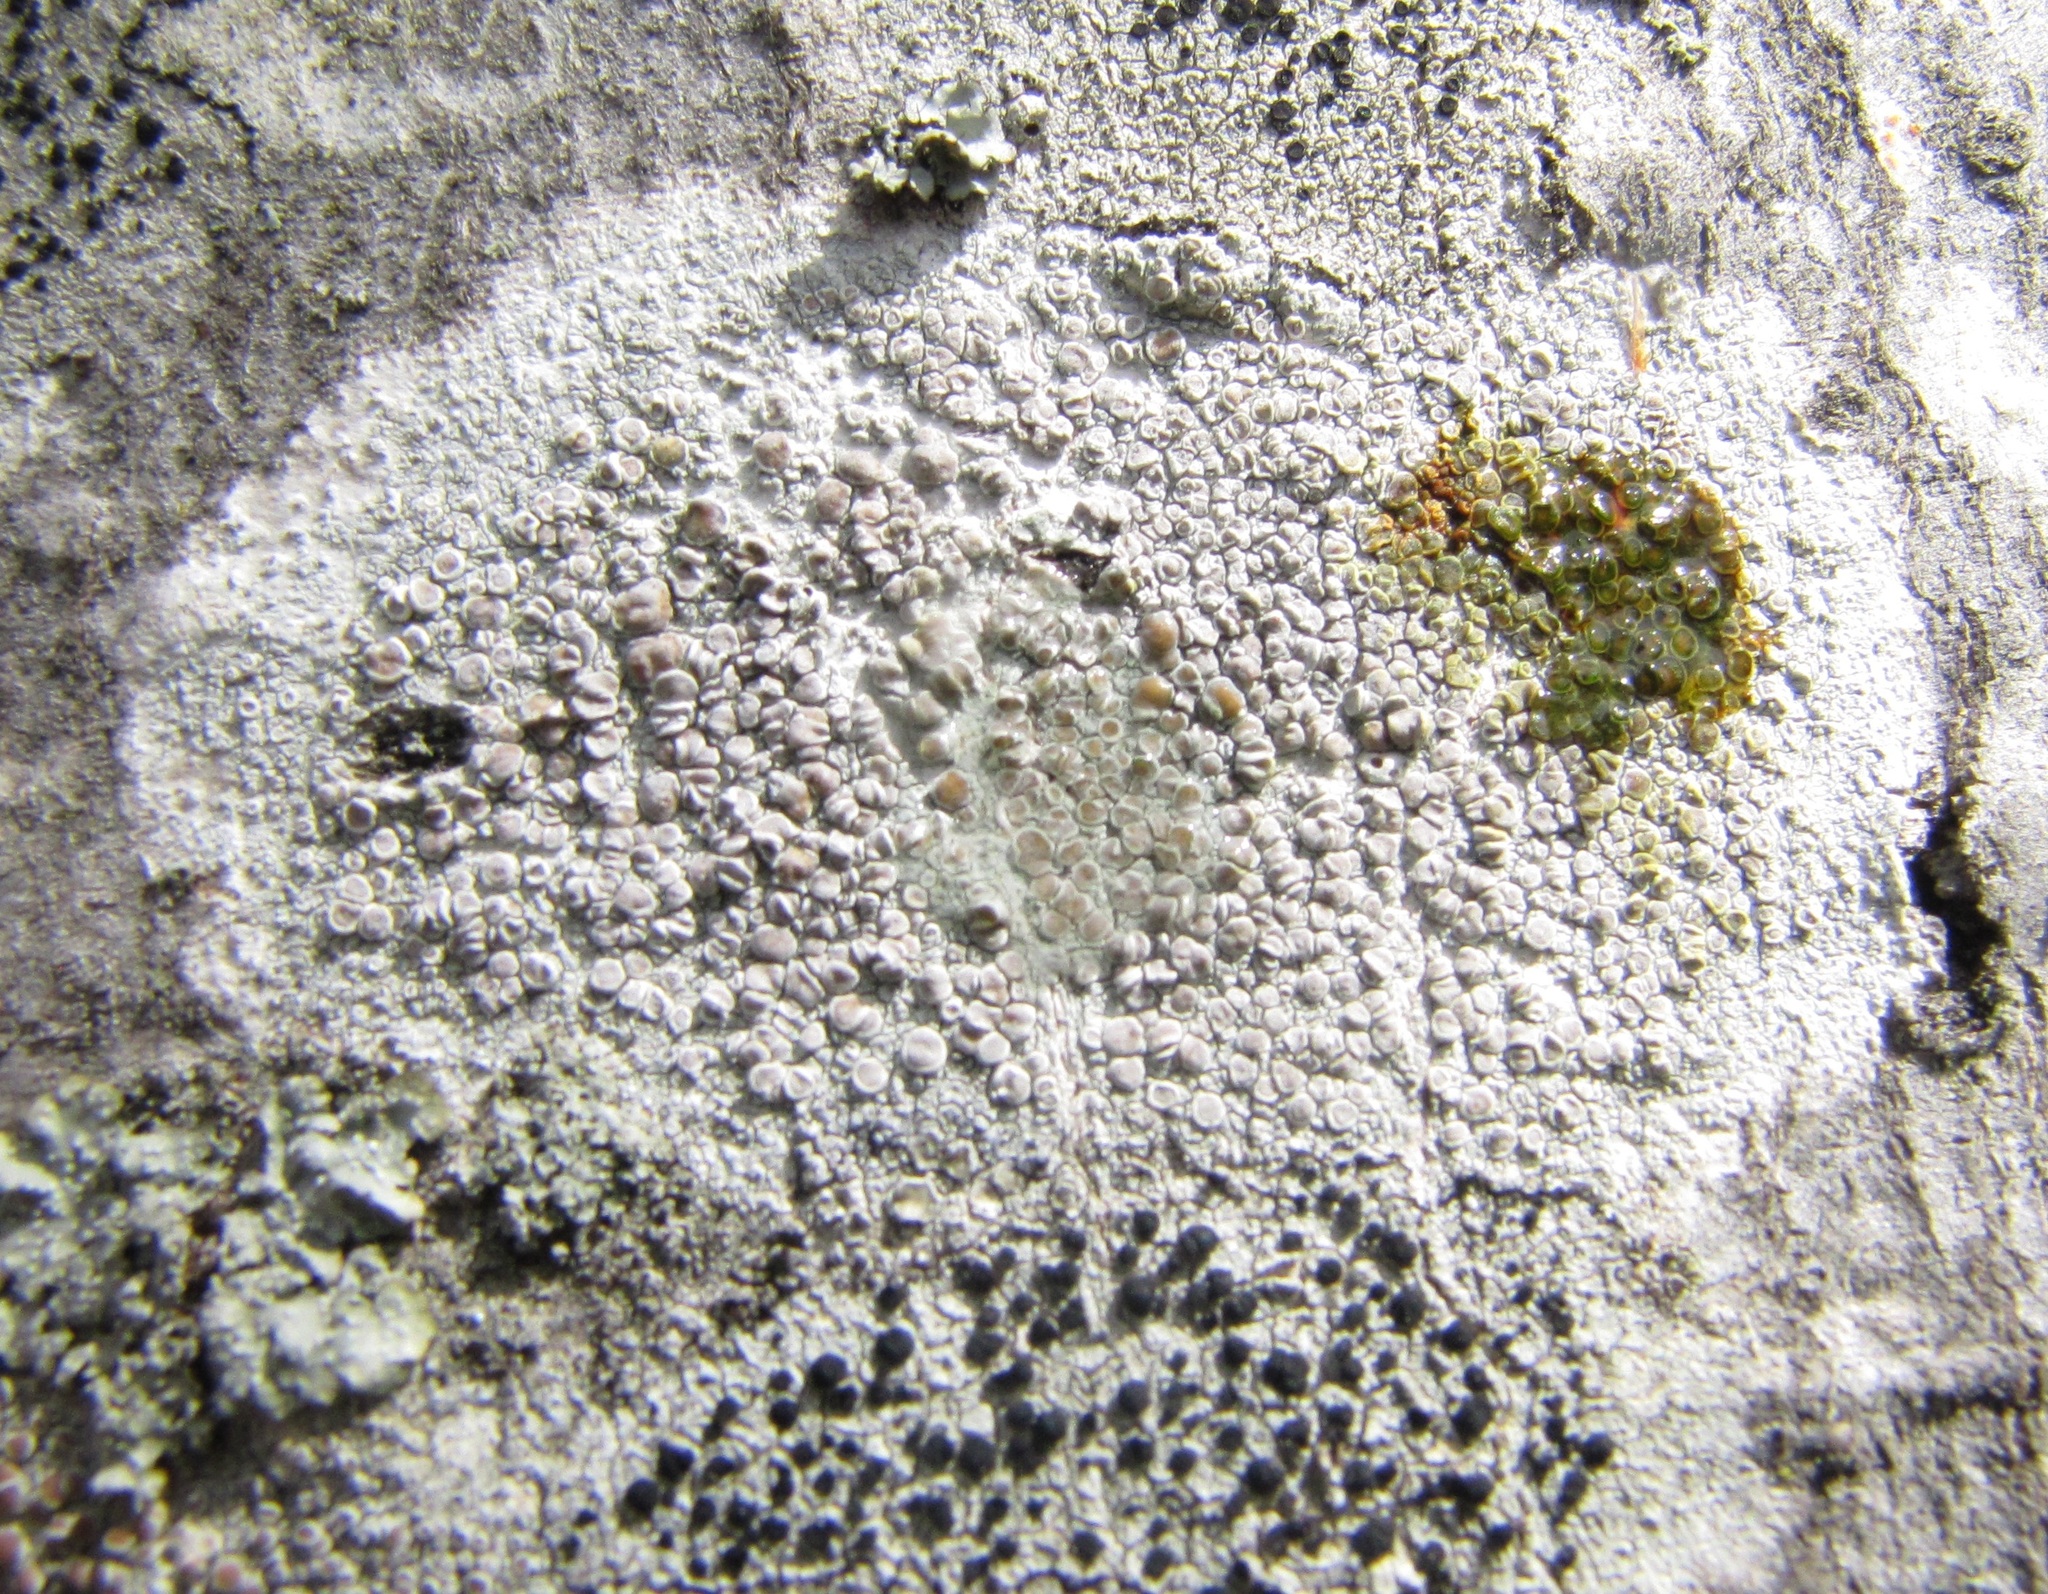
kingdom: Fungi
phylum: Ascomycota
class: Lecanoromycetes
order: Lecanorales
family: Lecanoraceae
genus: Lecanora
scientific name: Lecanora protervula
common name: Lesser dust my discs
